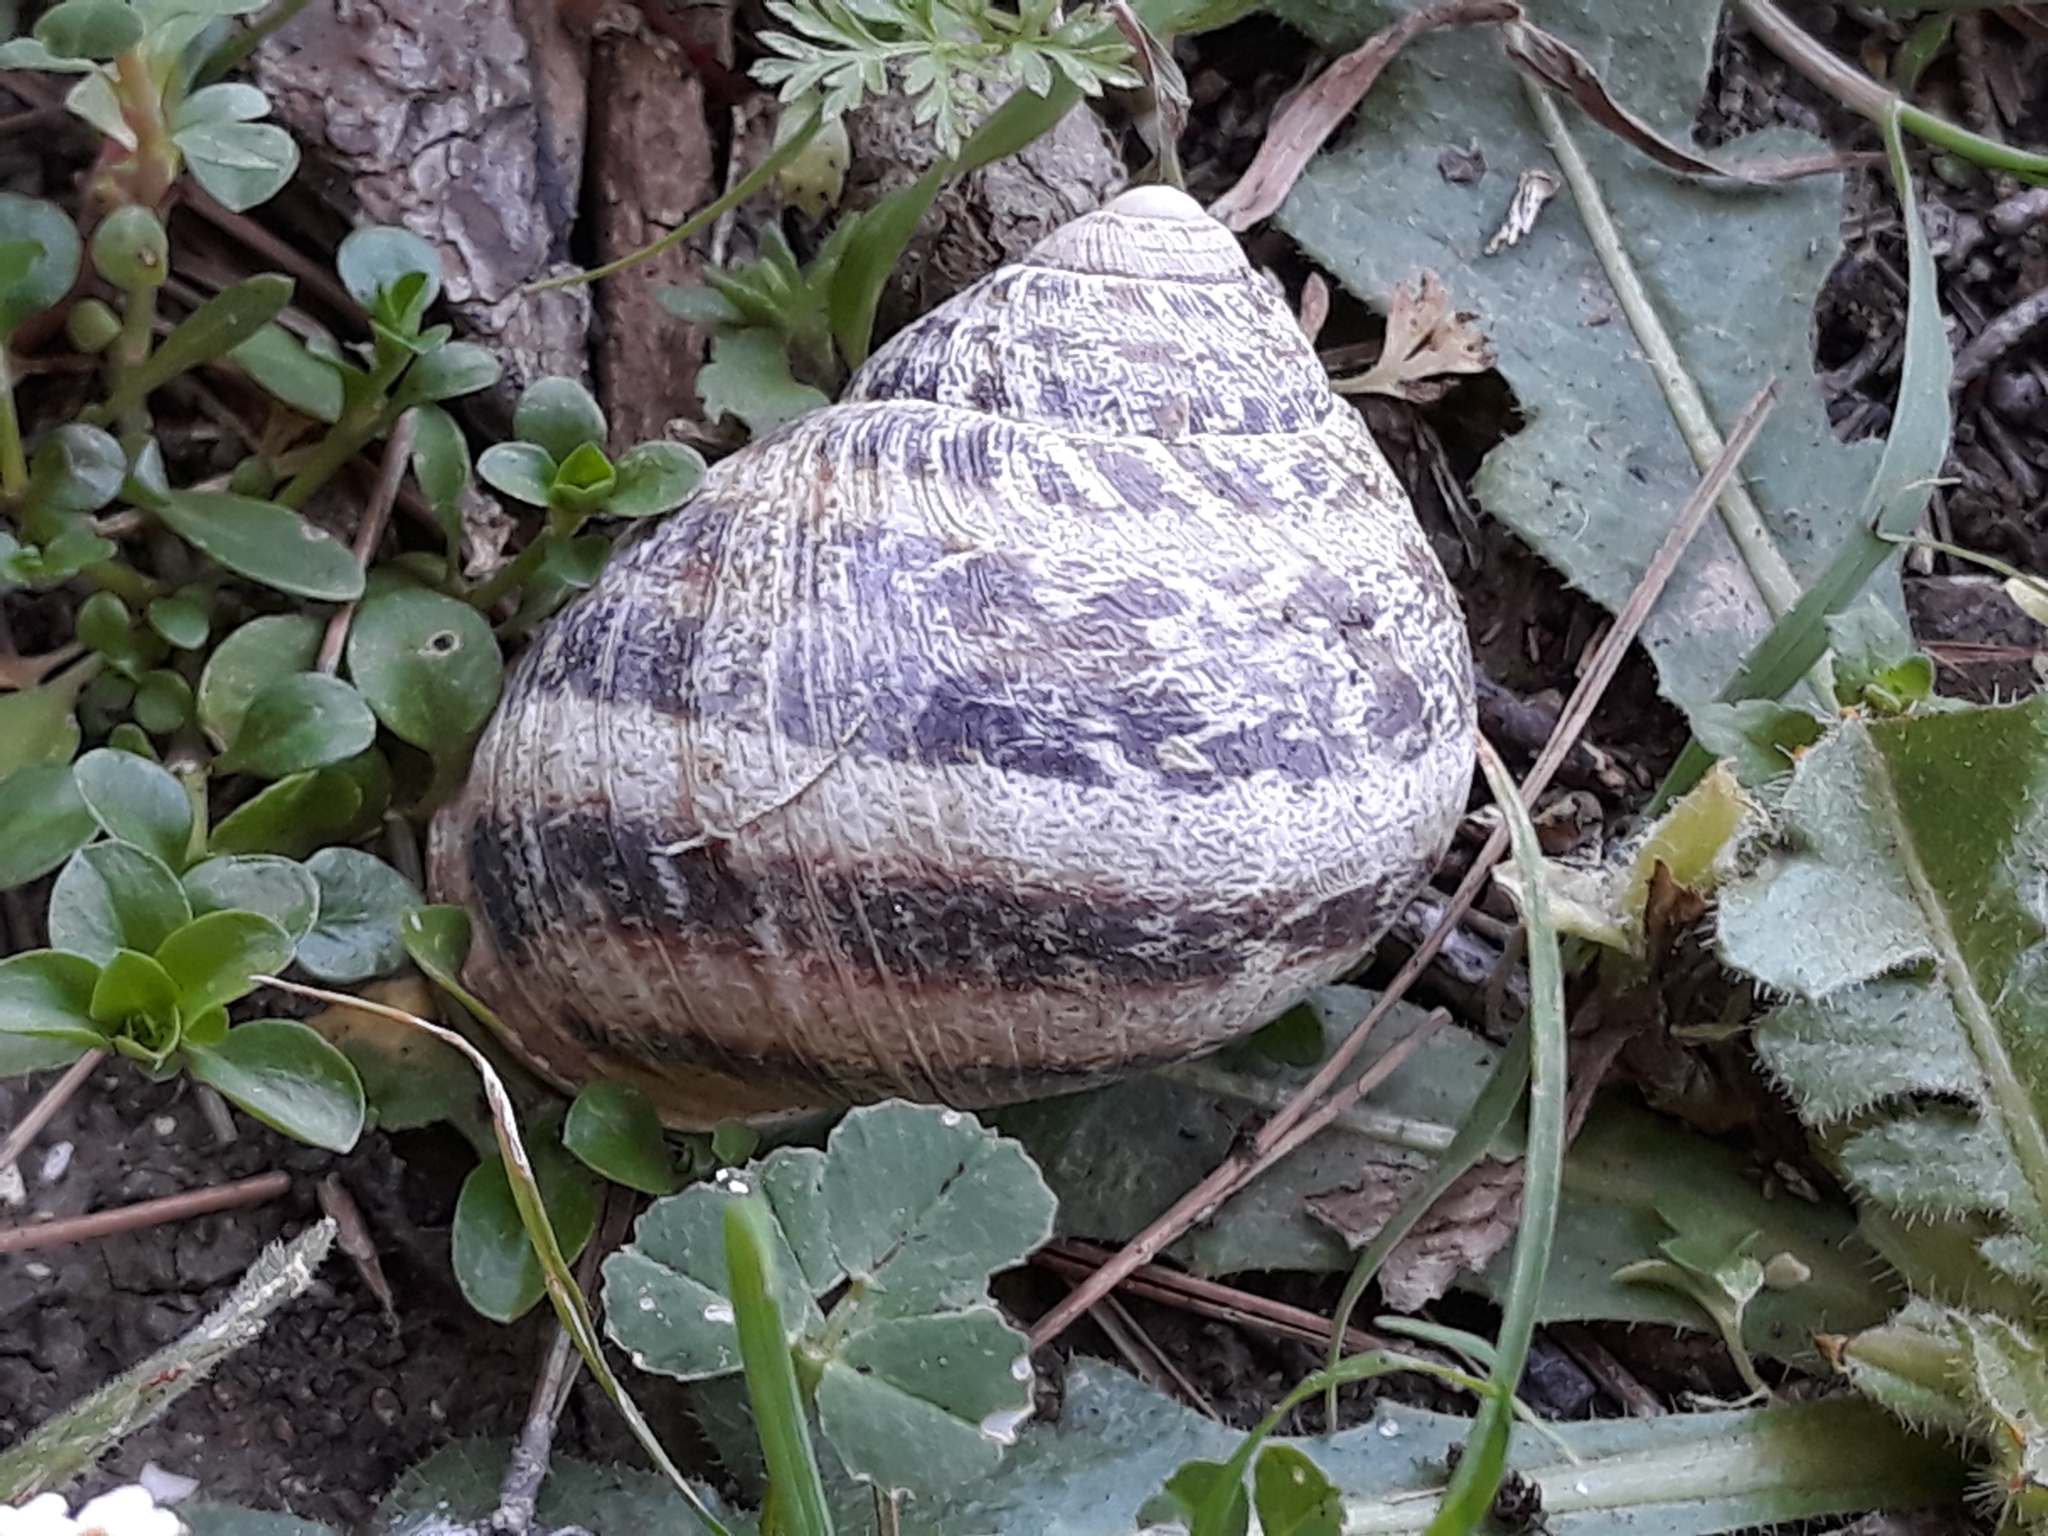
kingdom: Animalia
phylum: Mollusca
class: Gastropoda
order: Stylommatophora
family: Helicidae
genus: Cornu
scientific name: Cornu aspersum
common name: Brown garden snail
